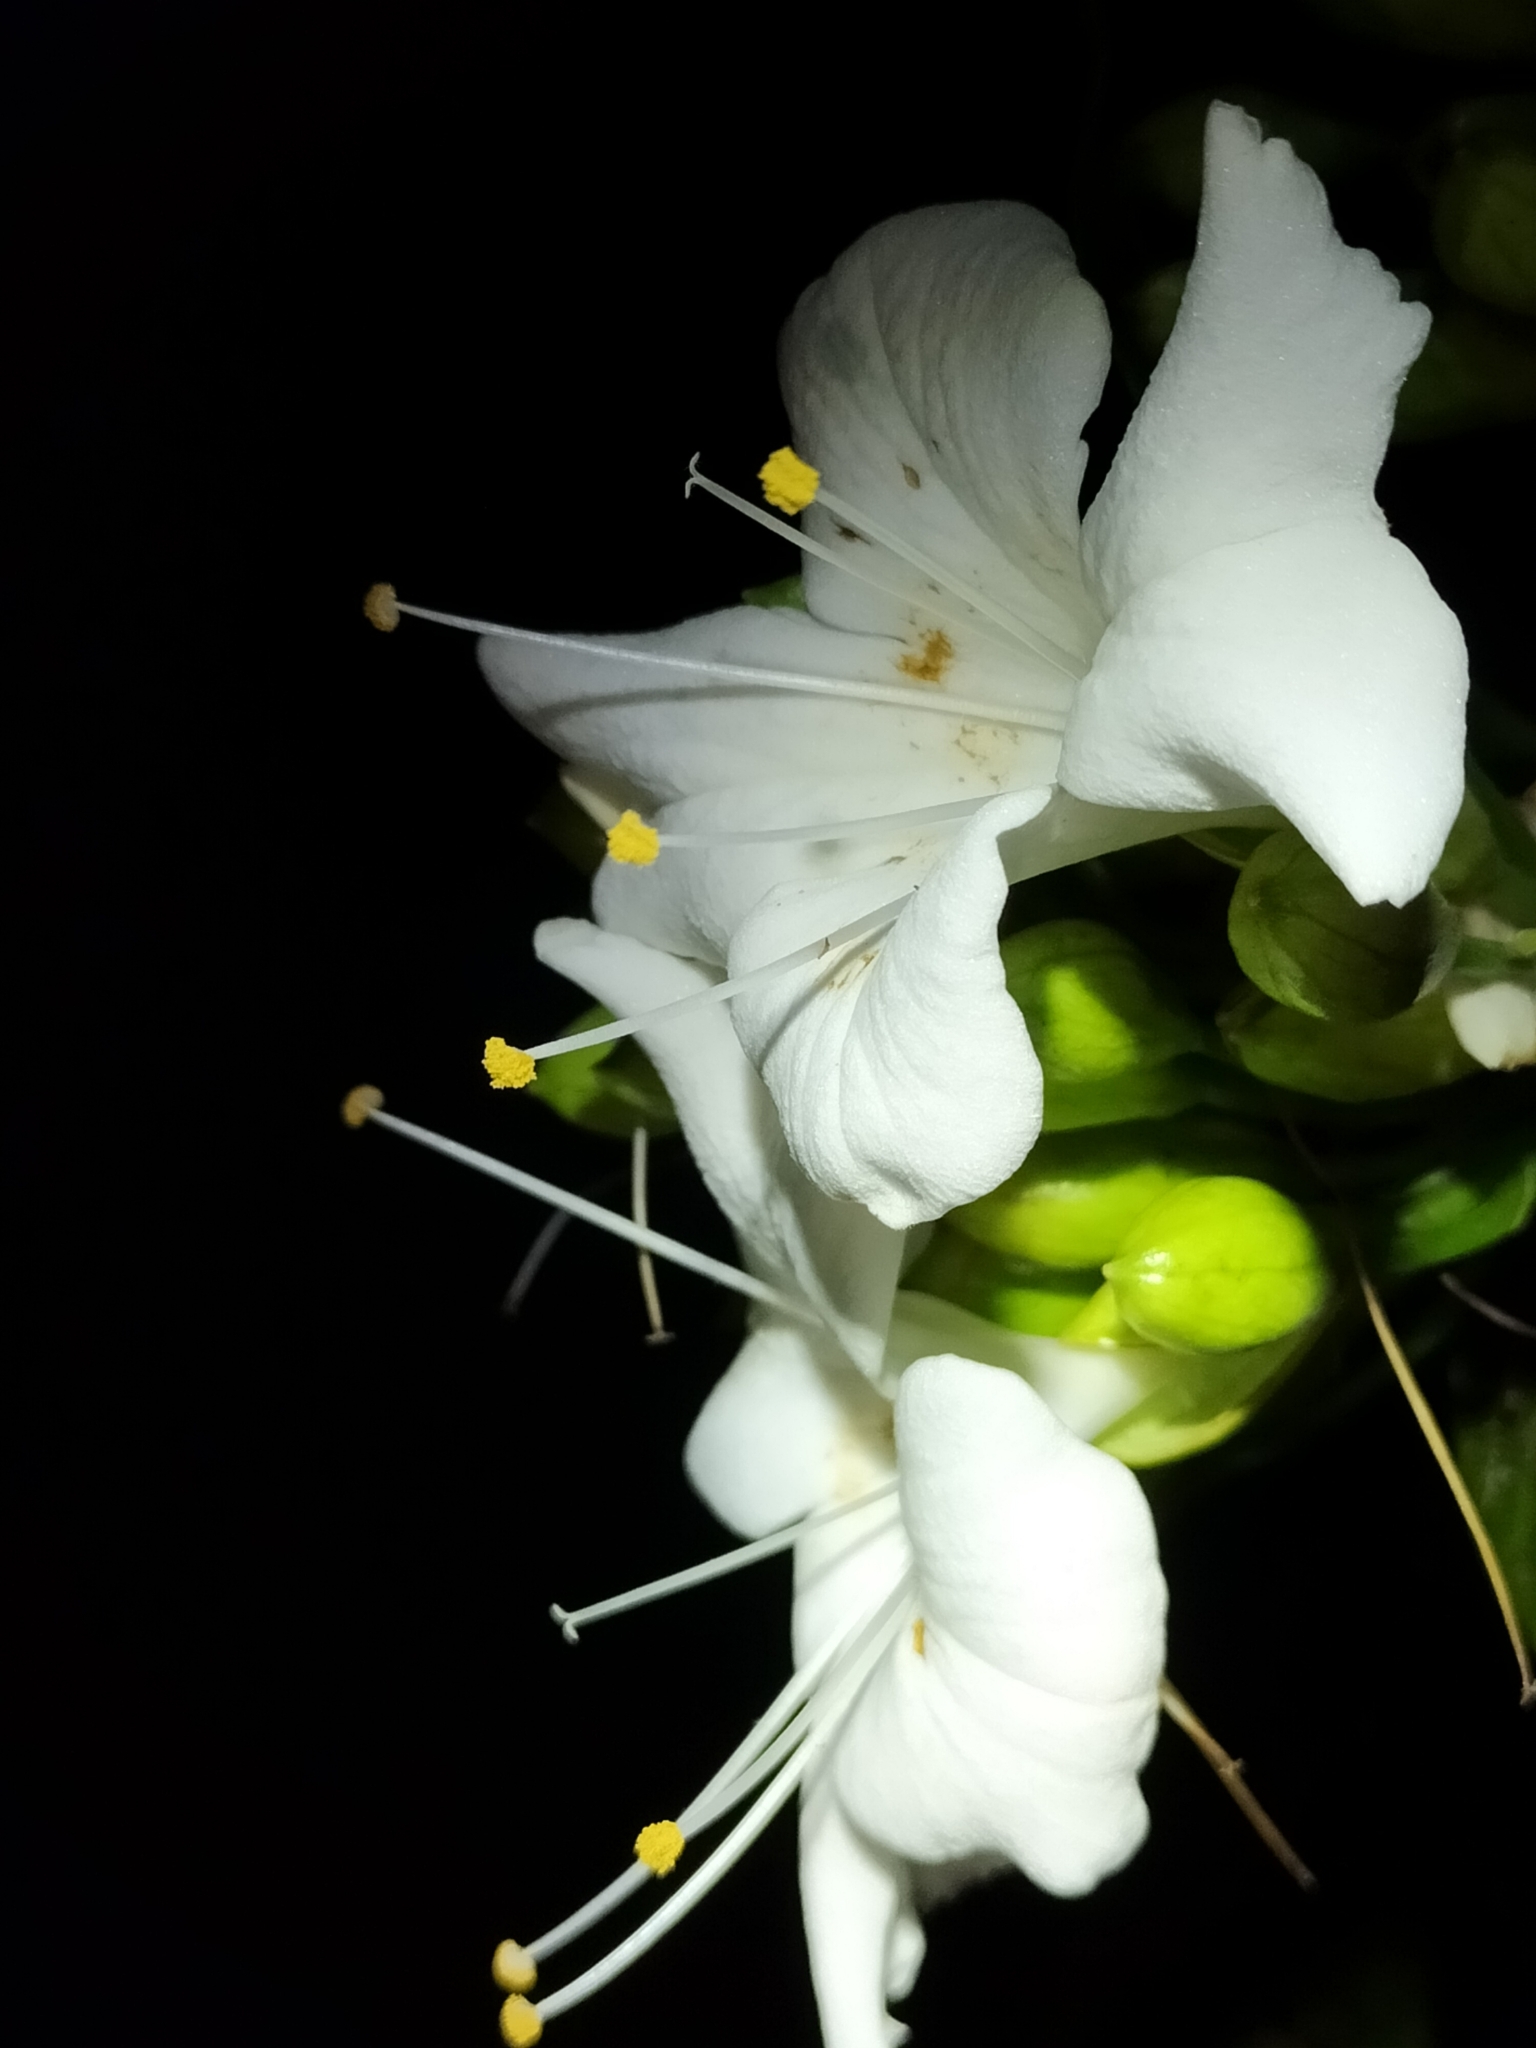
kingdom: Plantae
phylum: Tracheophyta
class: Magnoliopsida
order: Lamiales
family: Lamiaceae
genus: Oxera
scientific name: Oxera splendida
